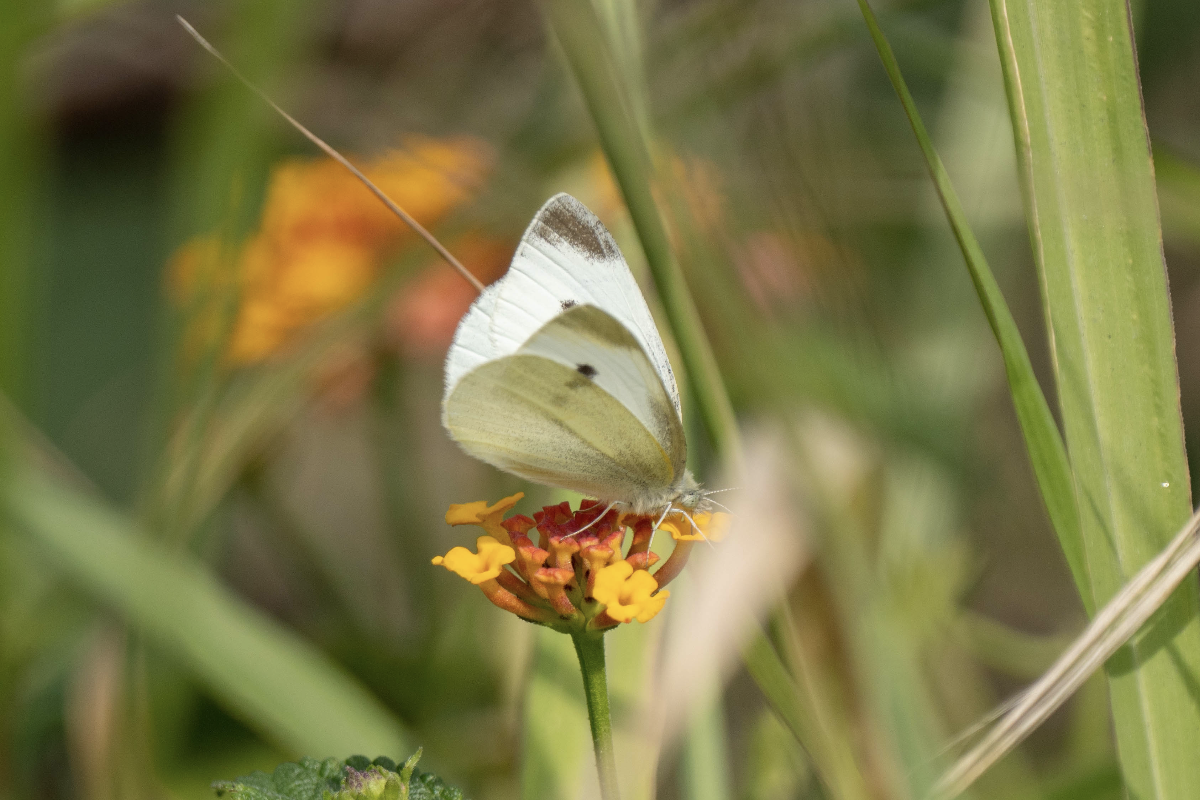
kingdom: Animalia
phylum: Arthropoda
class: Insecta
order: Lepidoptera
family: Pieridae
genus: Pieris
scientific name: Pieris rapae
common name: Small white
